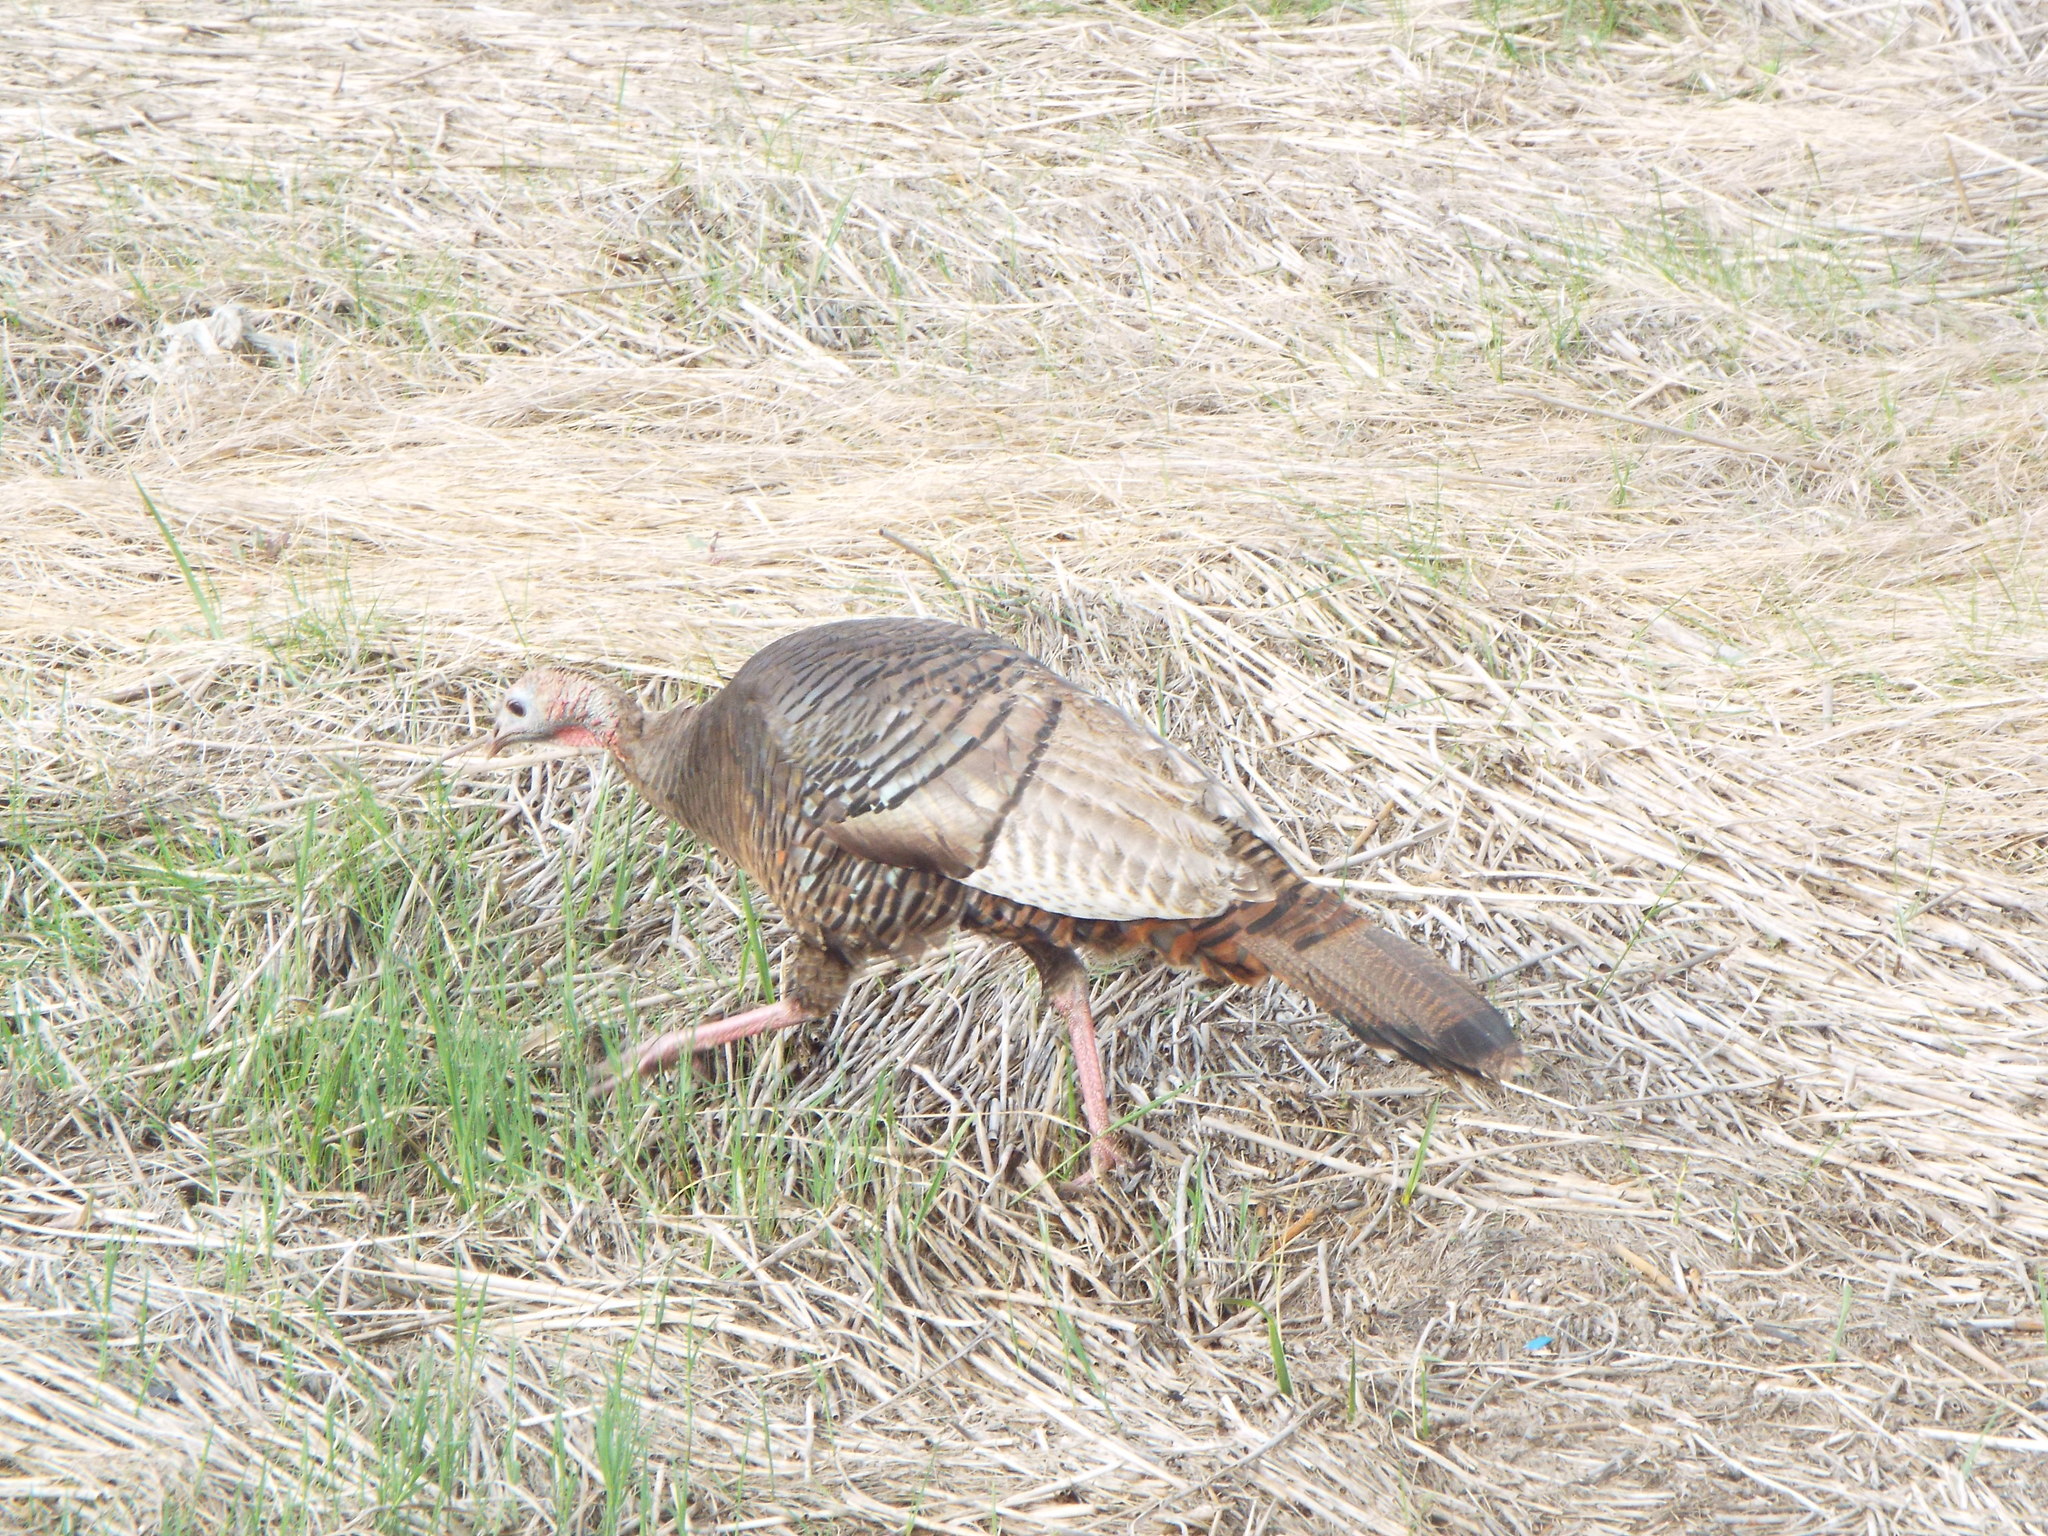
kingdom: Animalia
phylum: Chordata
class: Aves
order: Galliformes
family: Phasianidae
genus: Meleagris
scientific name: Meleagris gallopavo
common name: Wild turkey
